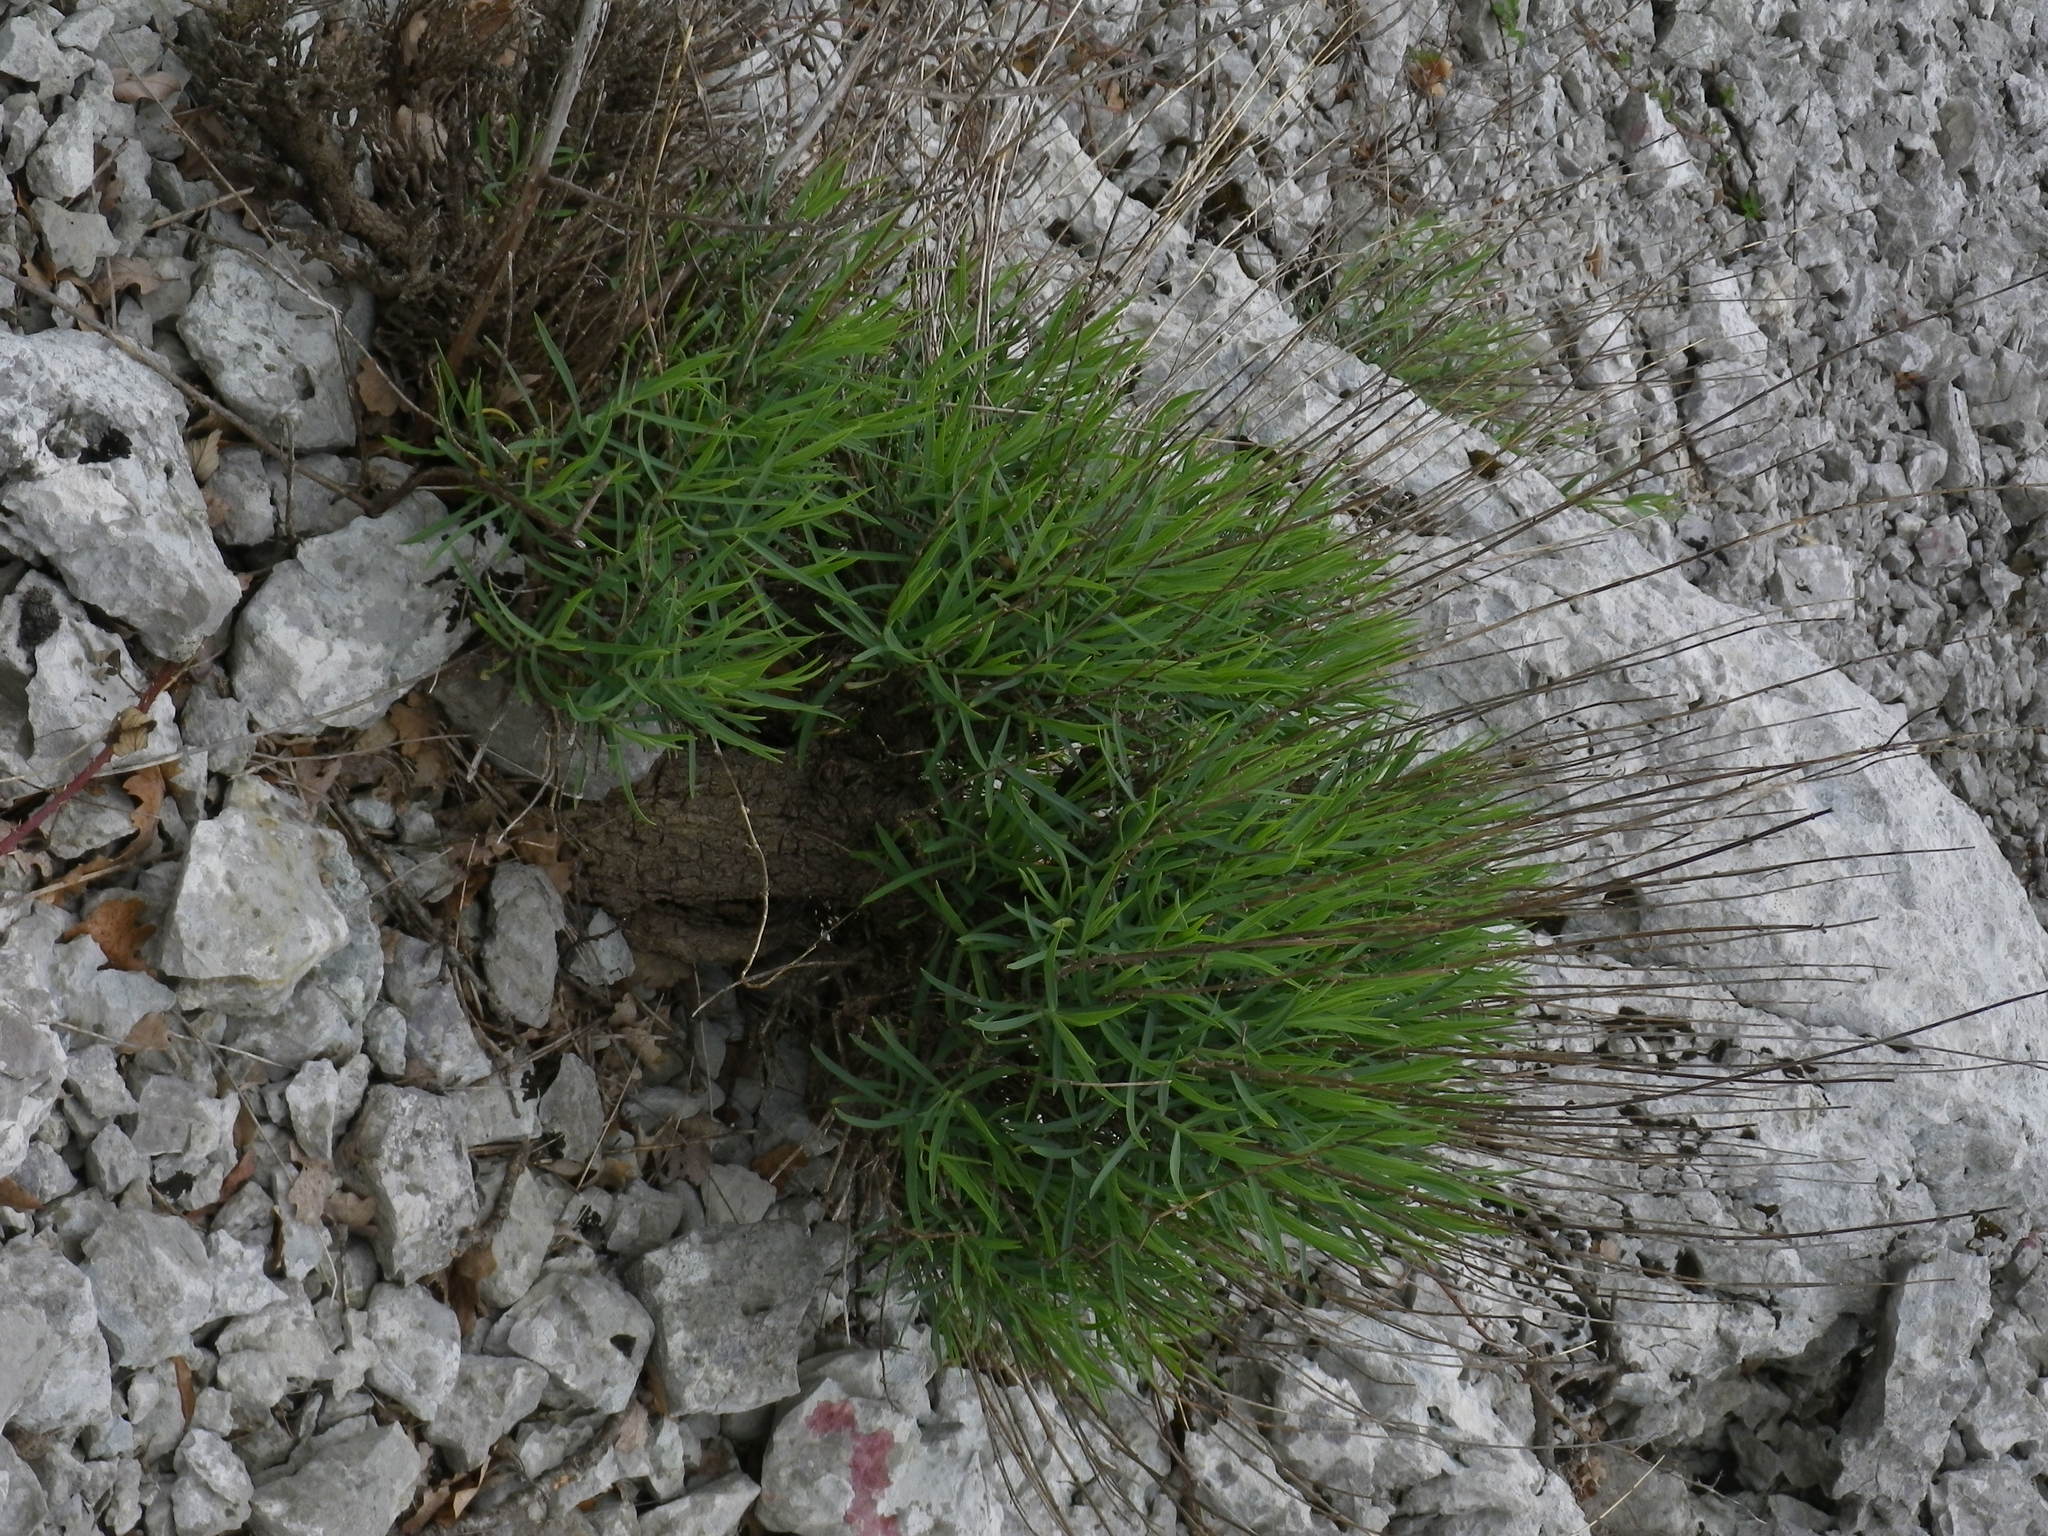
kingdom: Plantae
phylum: Tracheophyta
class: Magnoliopsida
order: Dipsacales
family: Caprifoliaceae
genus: Centranthus
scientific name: Centranthus lecoqii
